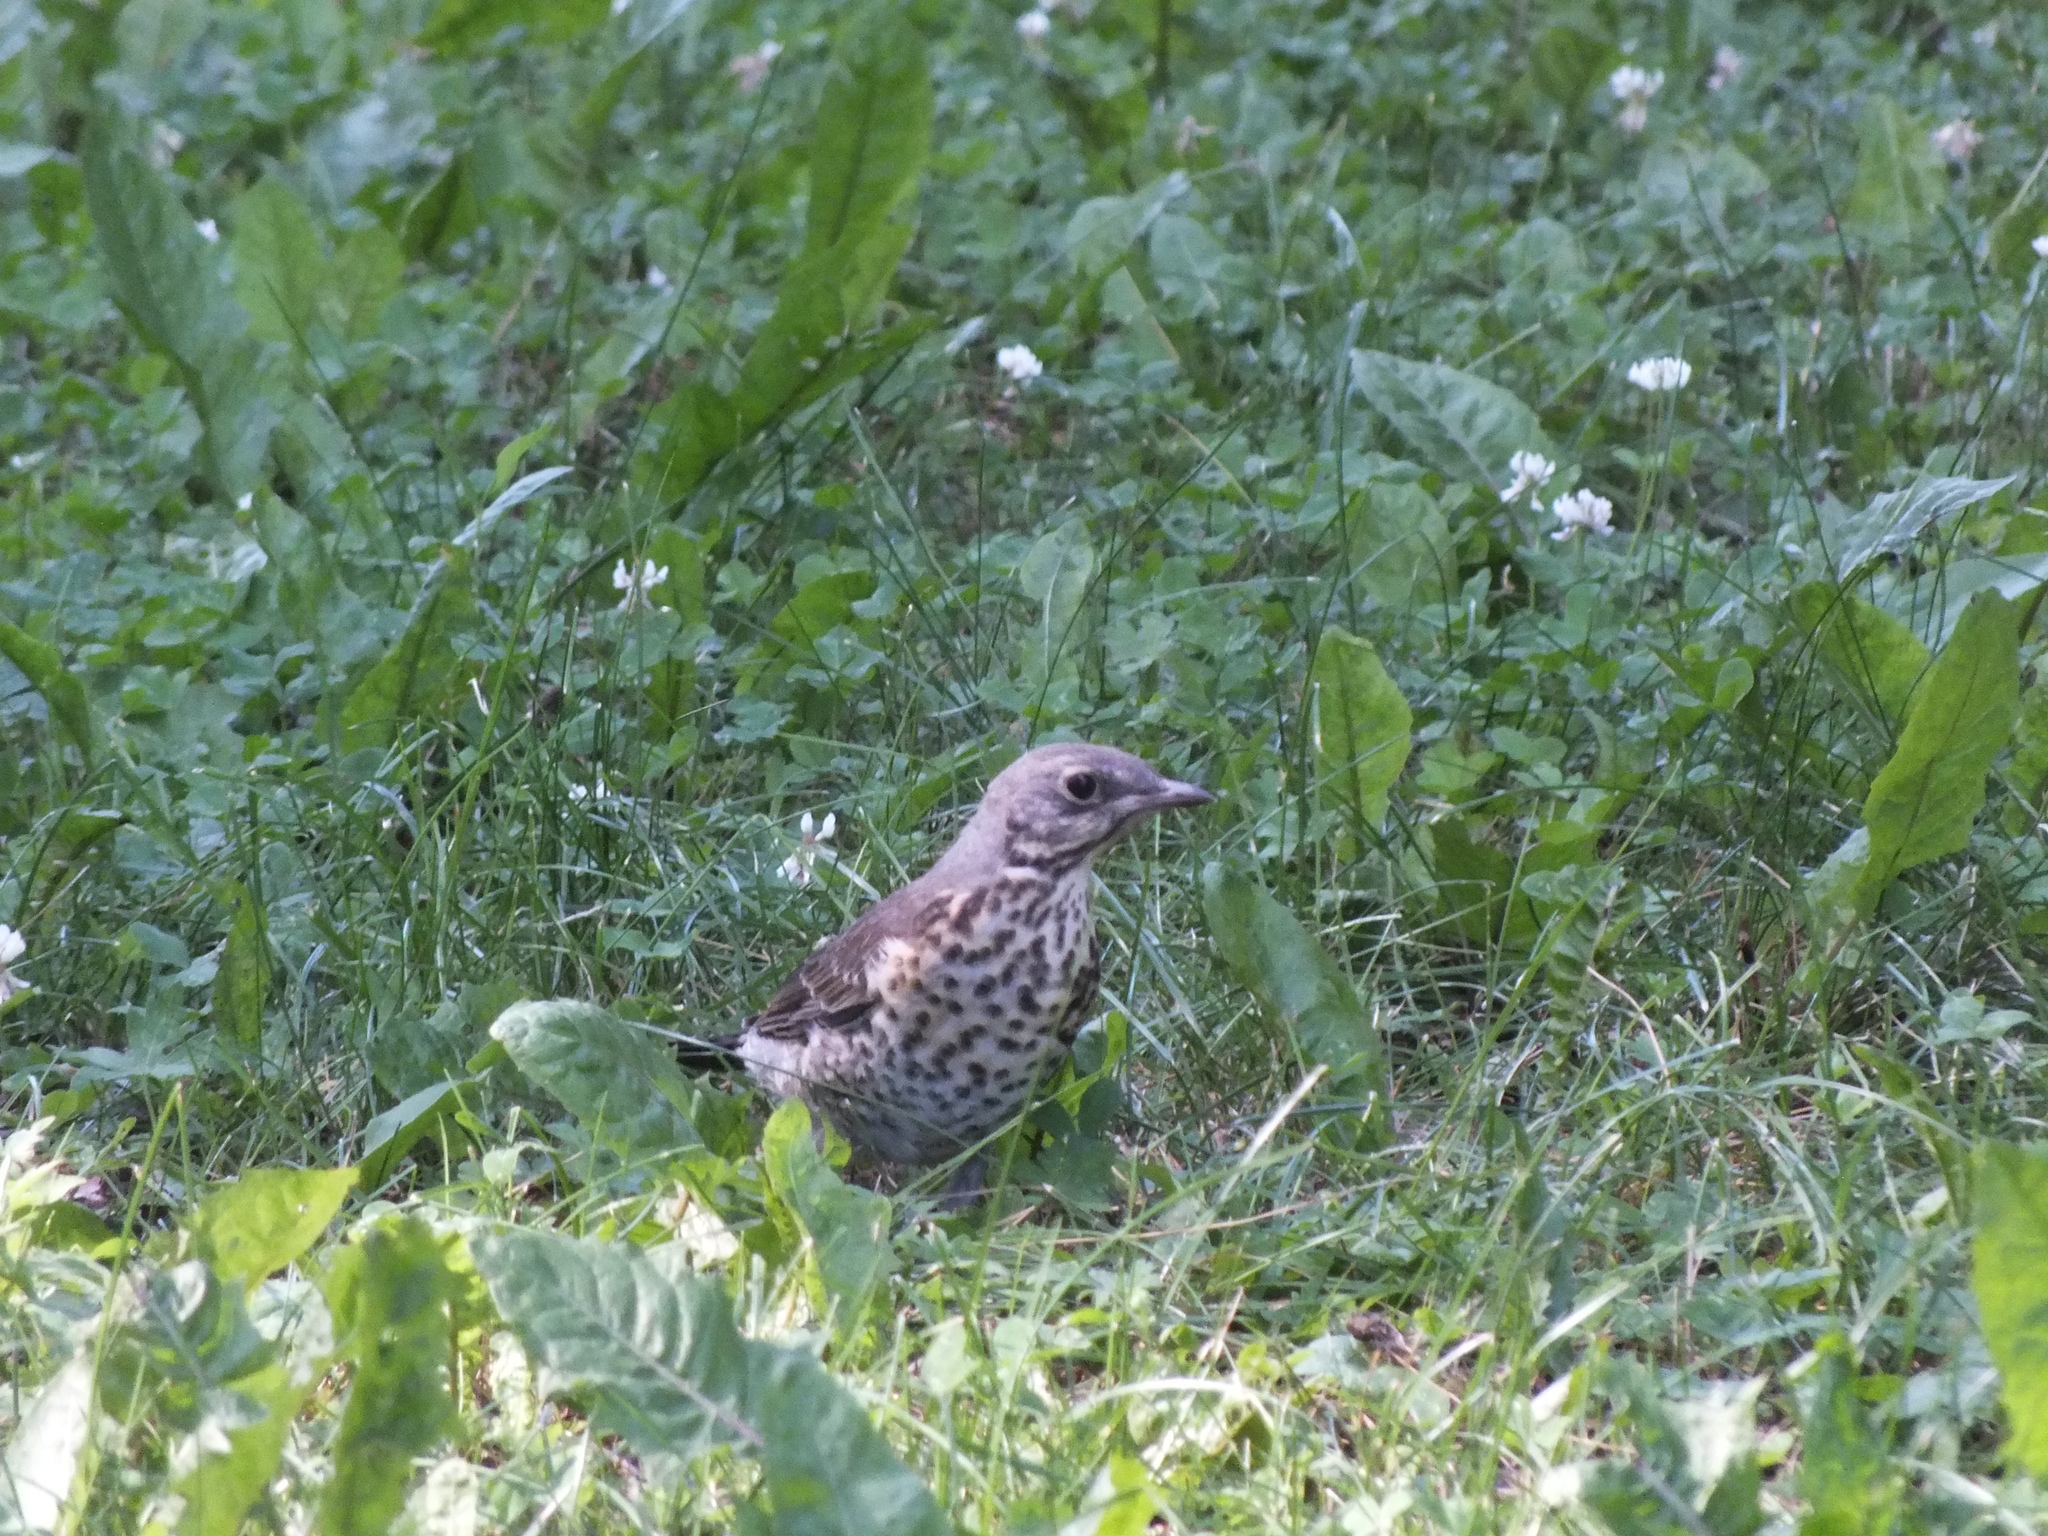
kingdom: Animalia
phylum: Chordata
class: Aves
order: Passeriformes
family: Turdidae
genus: Turdus
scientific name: Turdus pilaris
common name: Fieldfare
